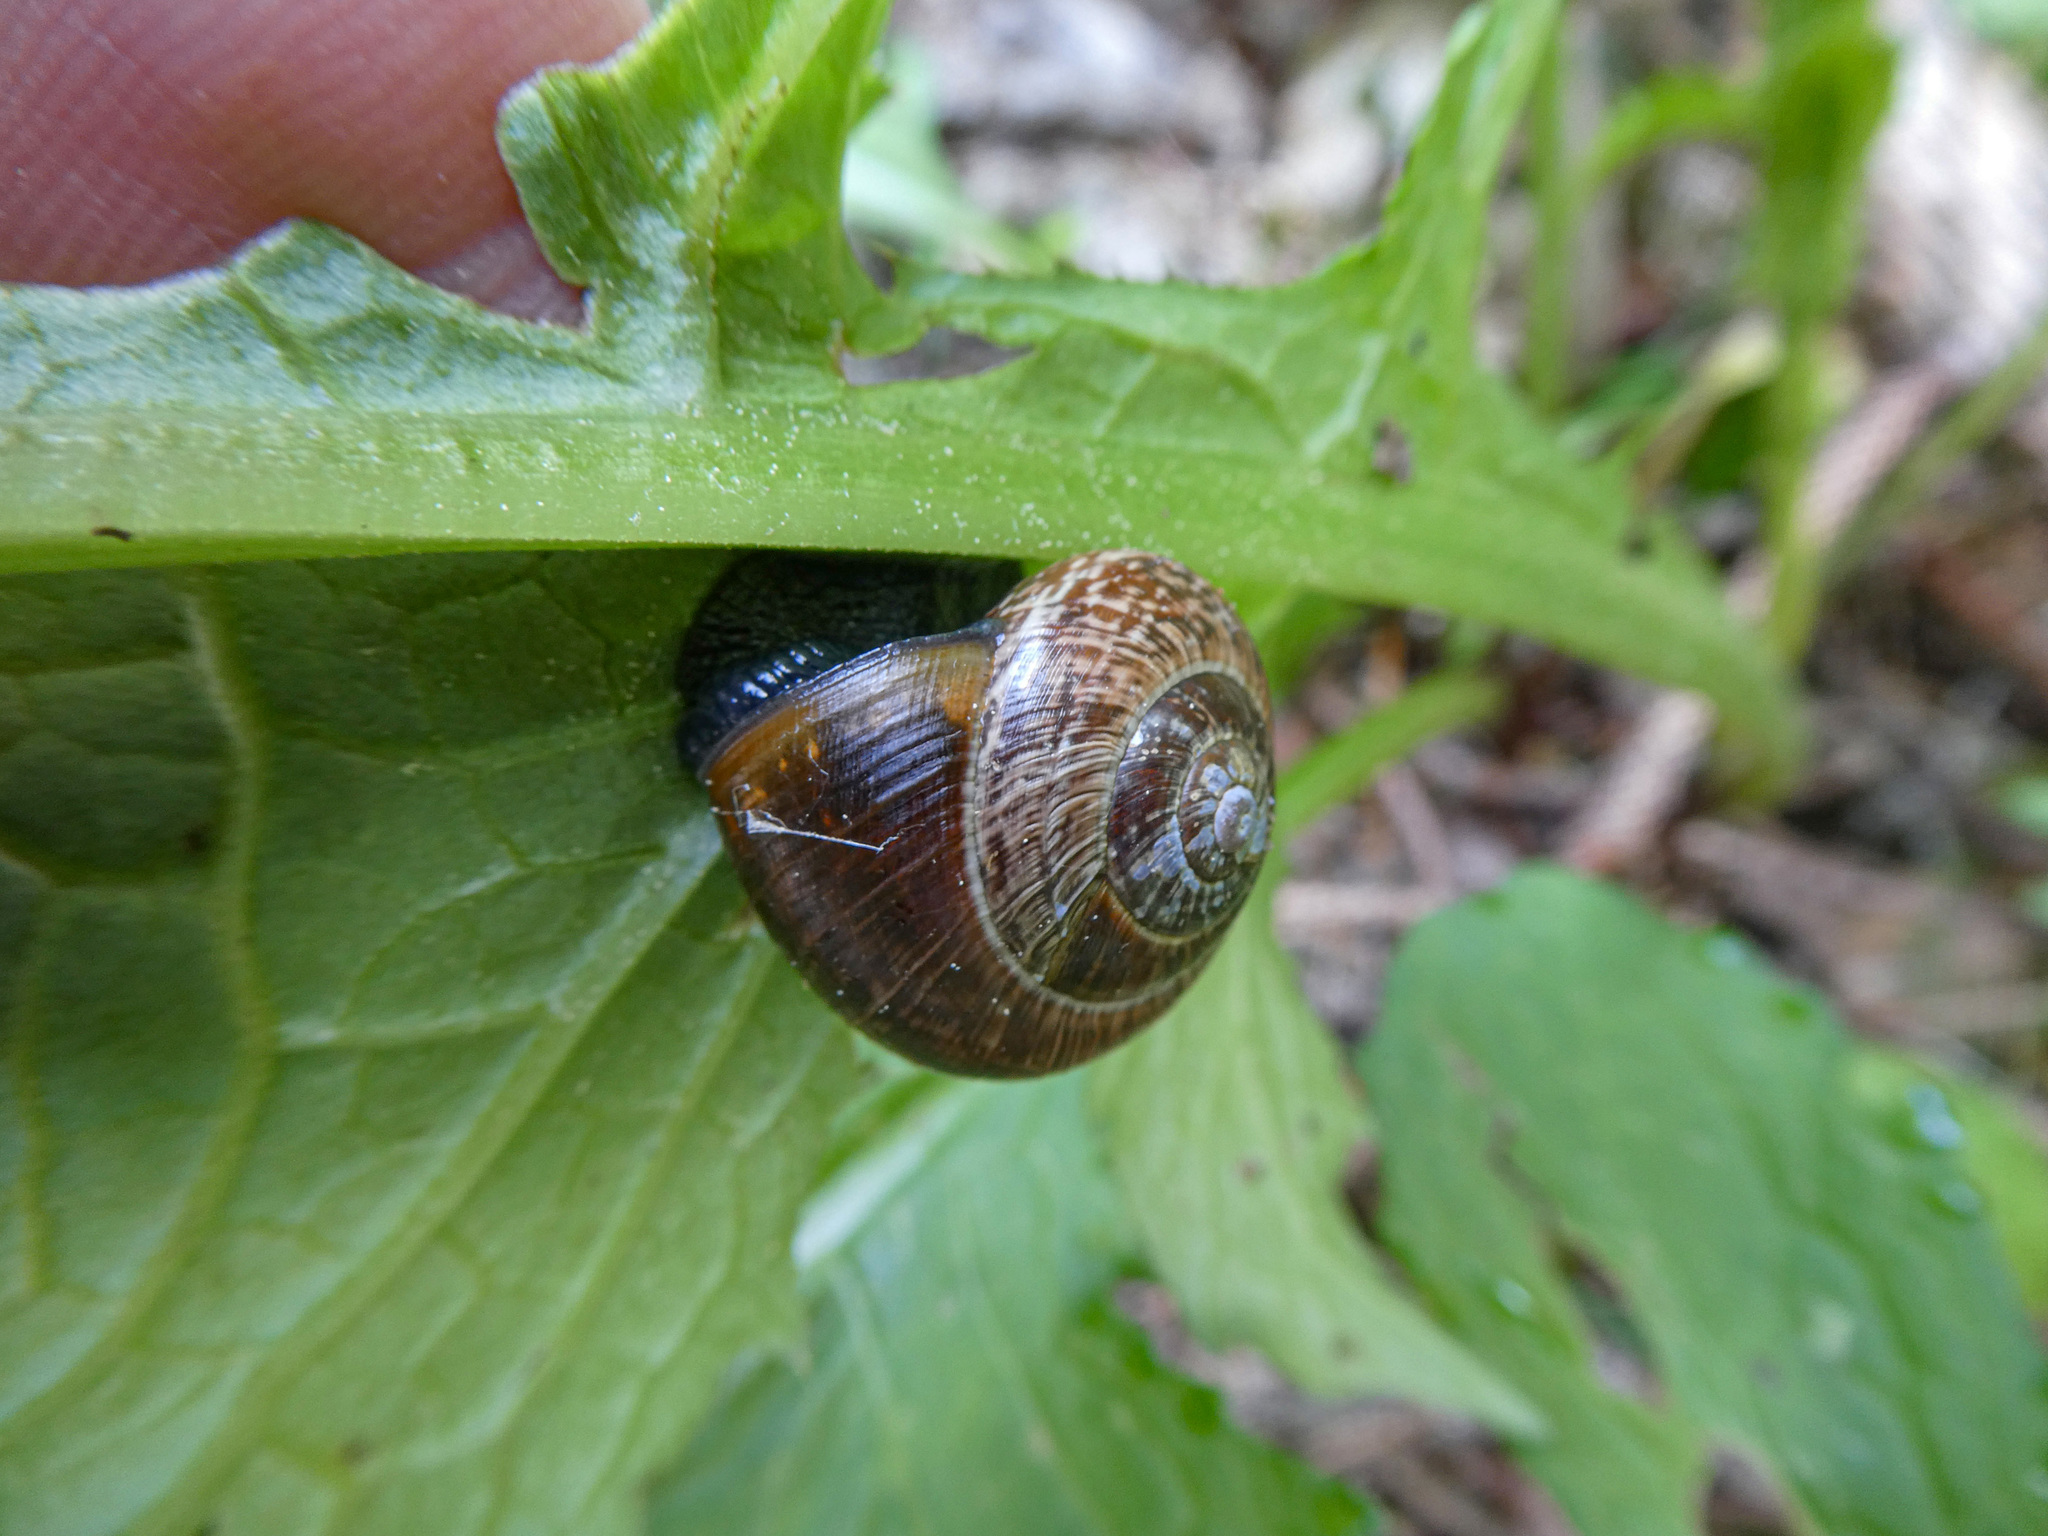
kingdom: Animalia
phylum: Mollusca
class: Gastropoda
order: Stylommatophora
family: Helicidae
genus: Arianta
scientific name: Arianta arbustorum
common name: Copse snail
